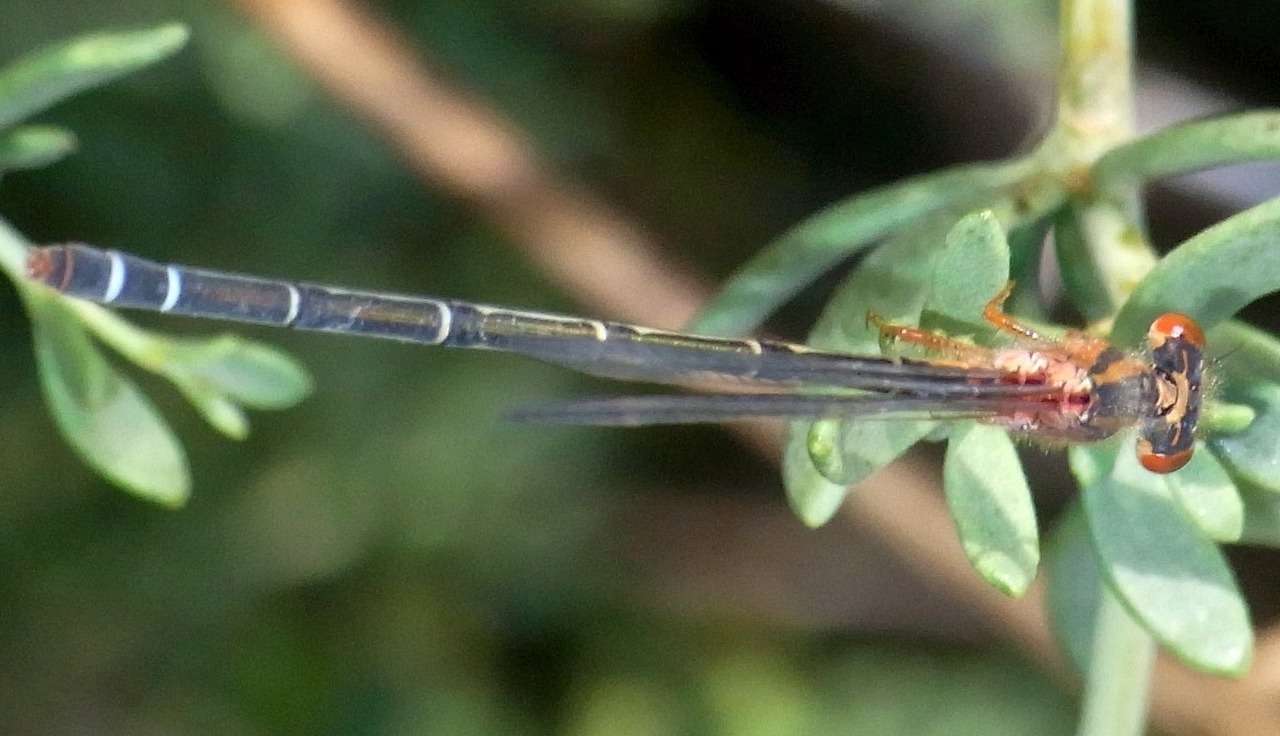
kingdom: Animalia
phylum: Arthropoda
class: Insecta
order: Odonata
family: Coenagrionidae
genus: Xanthagrion
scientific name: Xanthagrion erythroneurum
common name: Red and blue damsel
